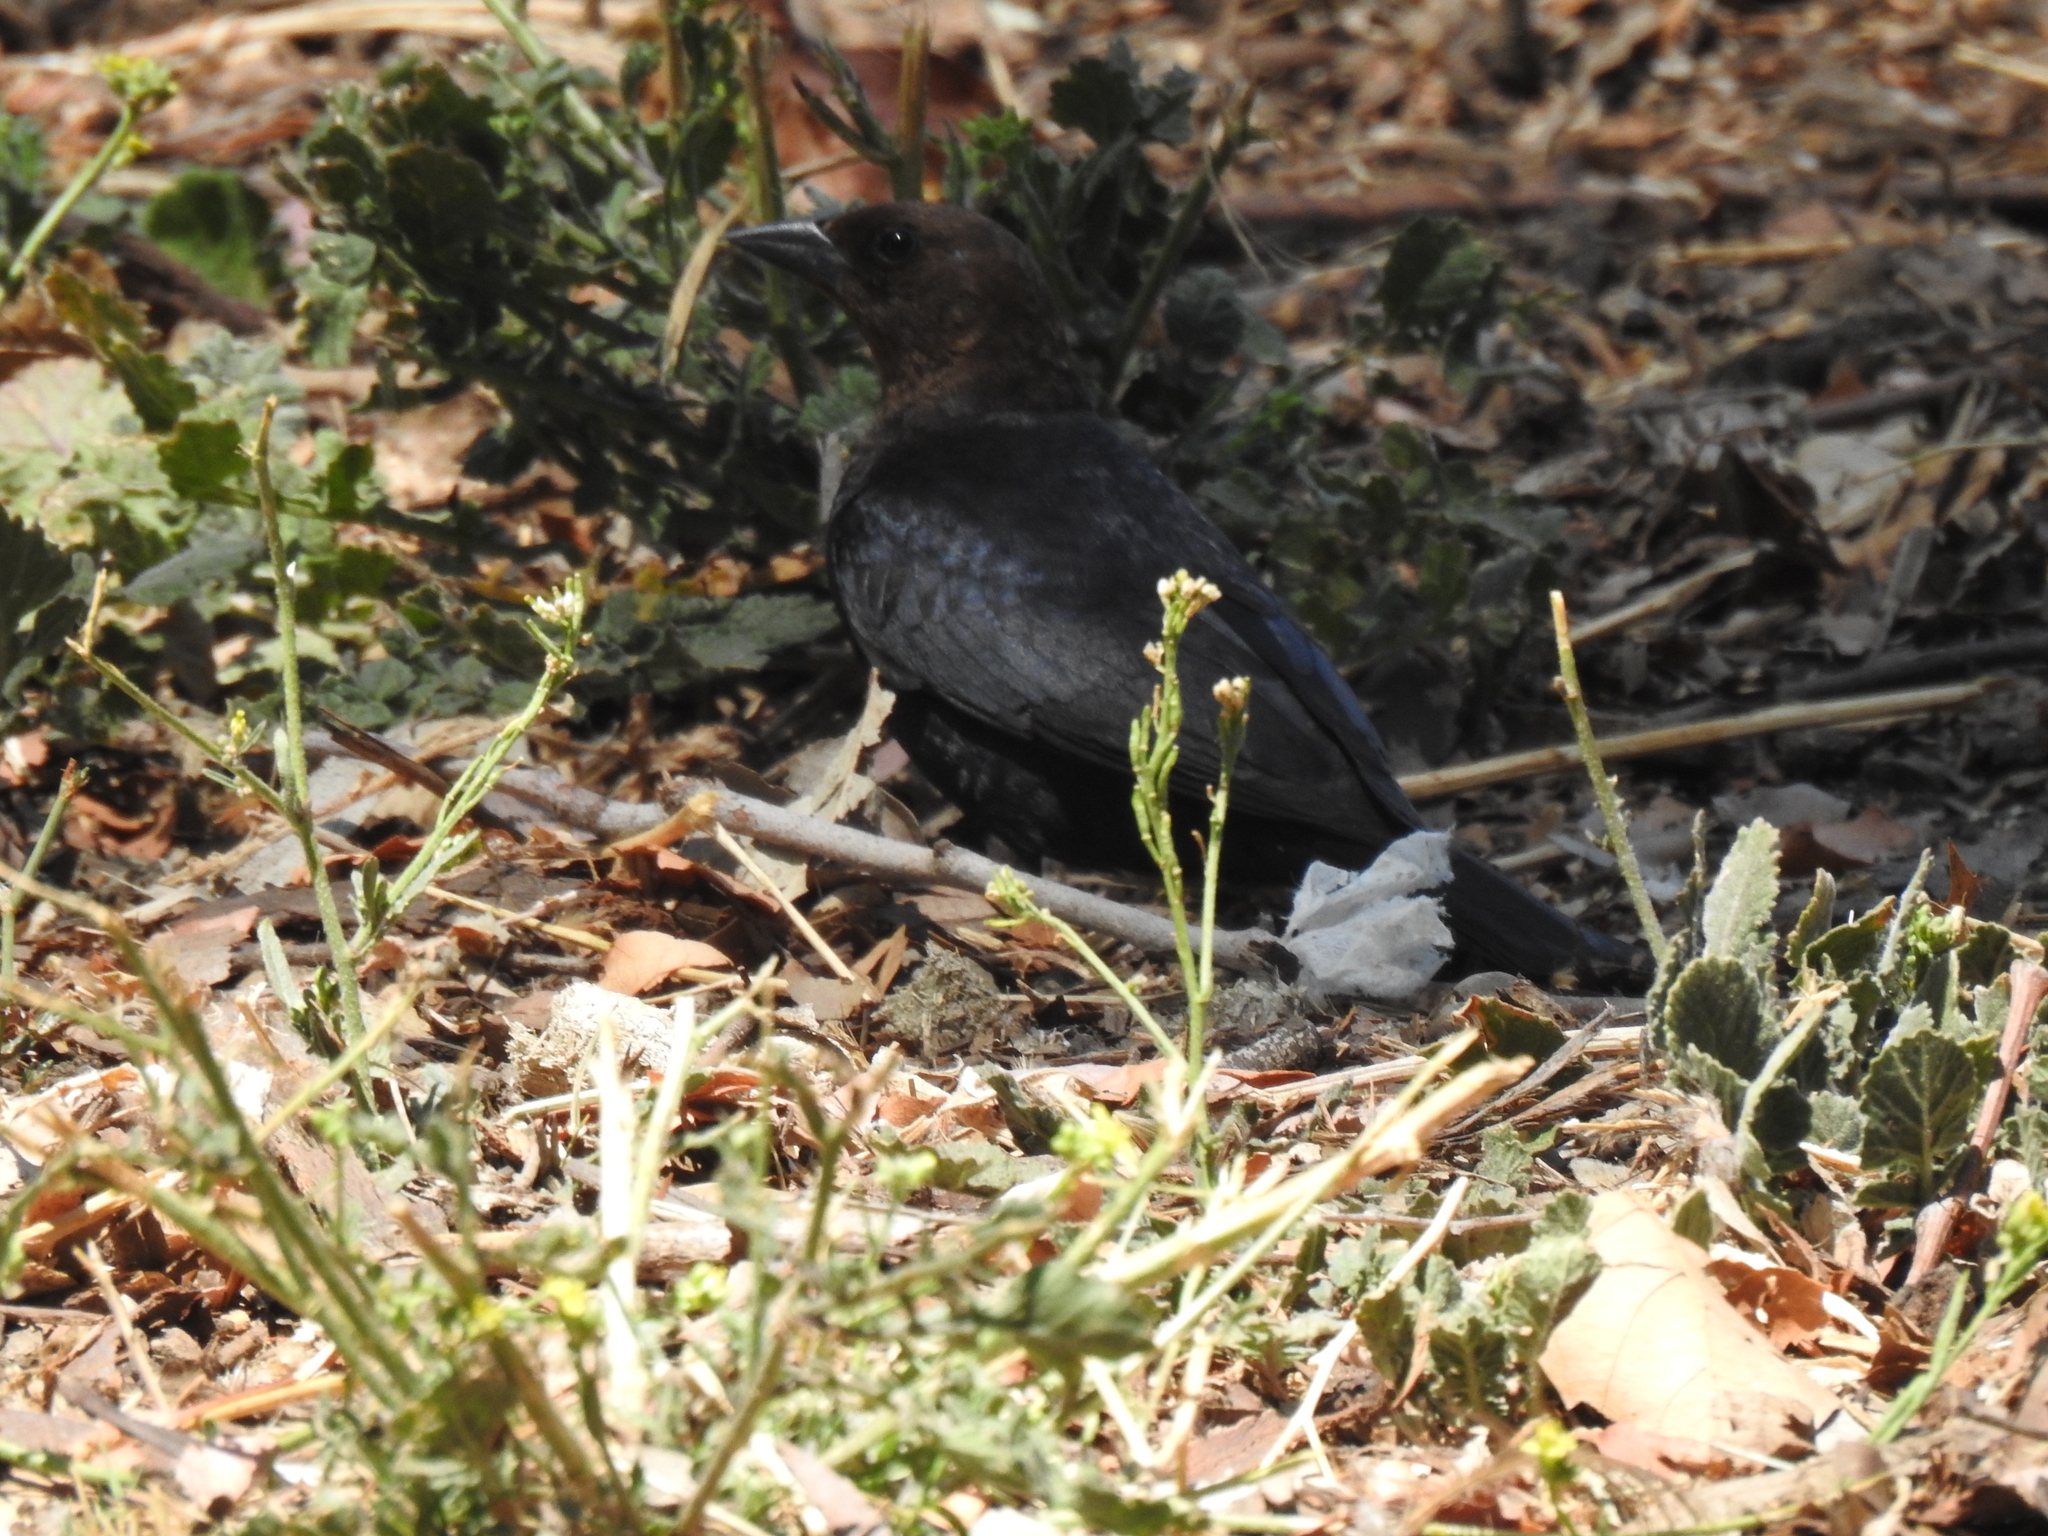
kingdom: Animalia
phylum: Chordata
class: Aves
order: Passeriformes
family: Icteridae
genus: Molothrus
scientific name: Molothrus ater
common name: Brown-headed cowbird
